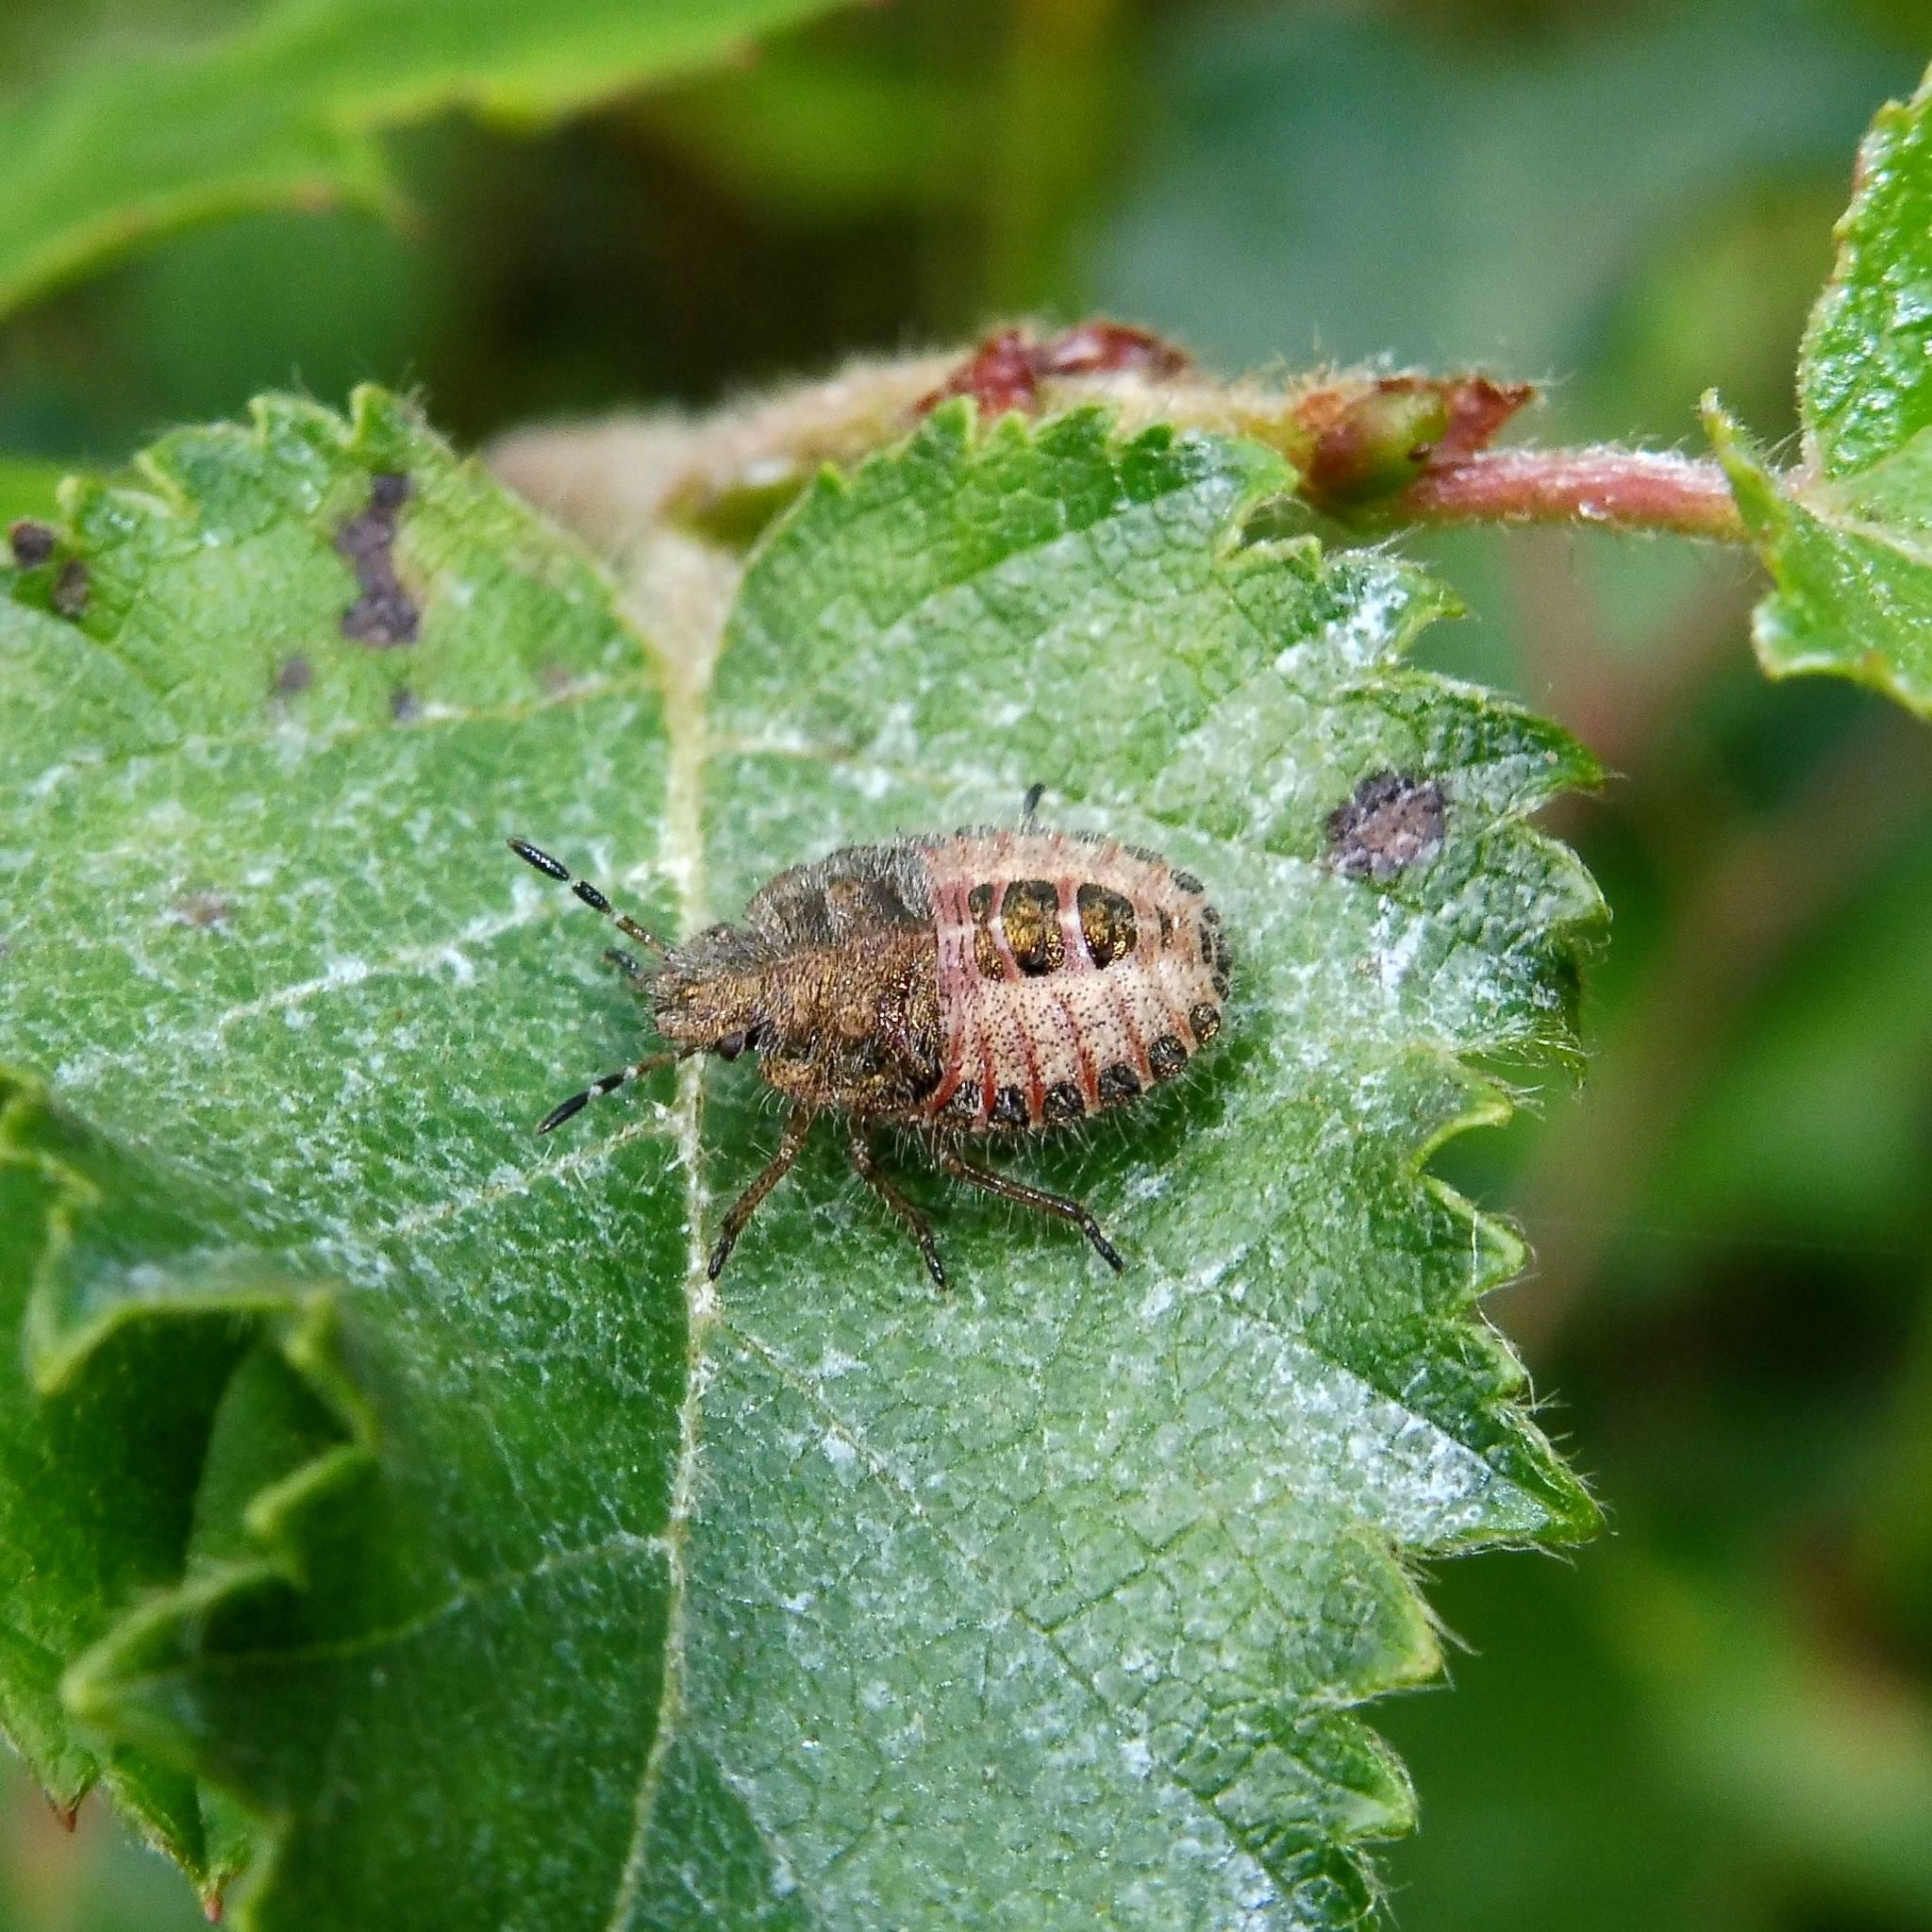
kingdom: Animalia
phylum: Arthropoda
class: Insecta
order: Hemiptera
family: Pentatomidae
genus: Dolycoris
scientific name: Dolycoris baccarum
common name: Sloe bug
